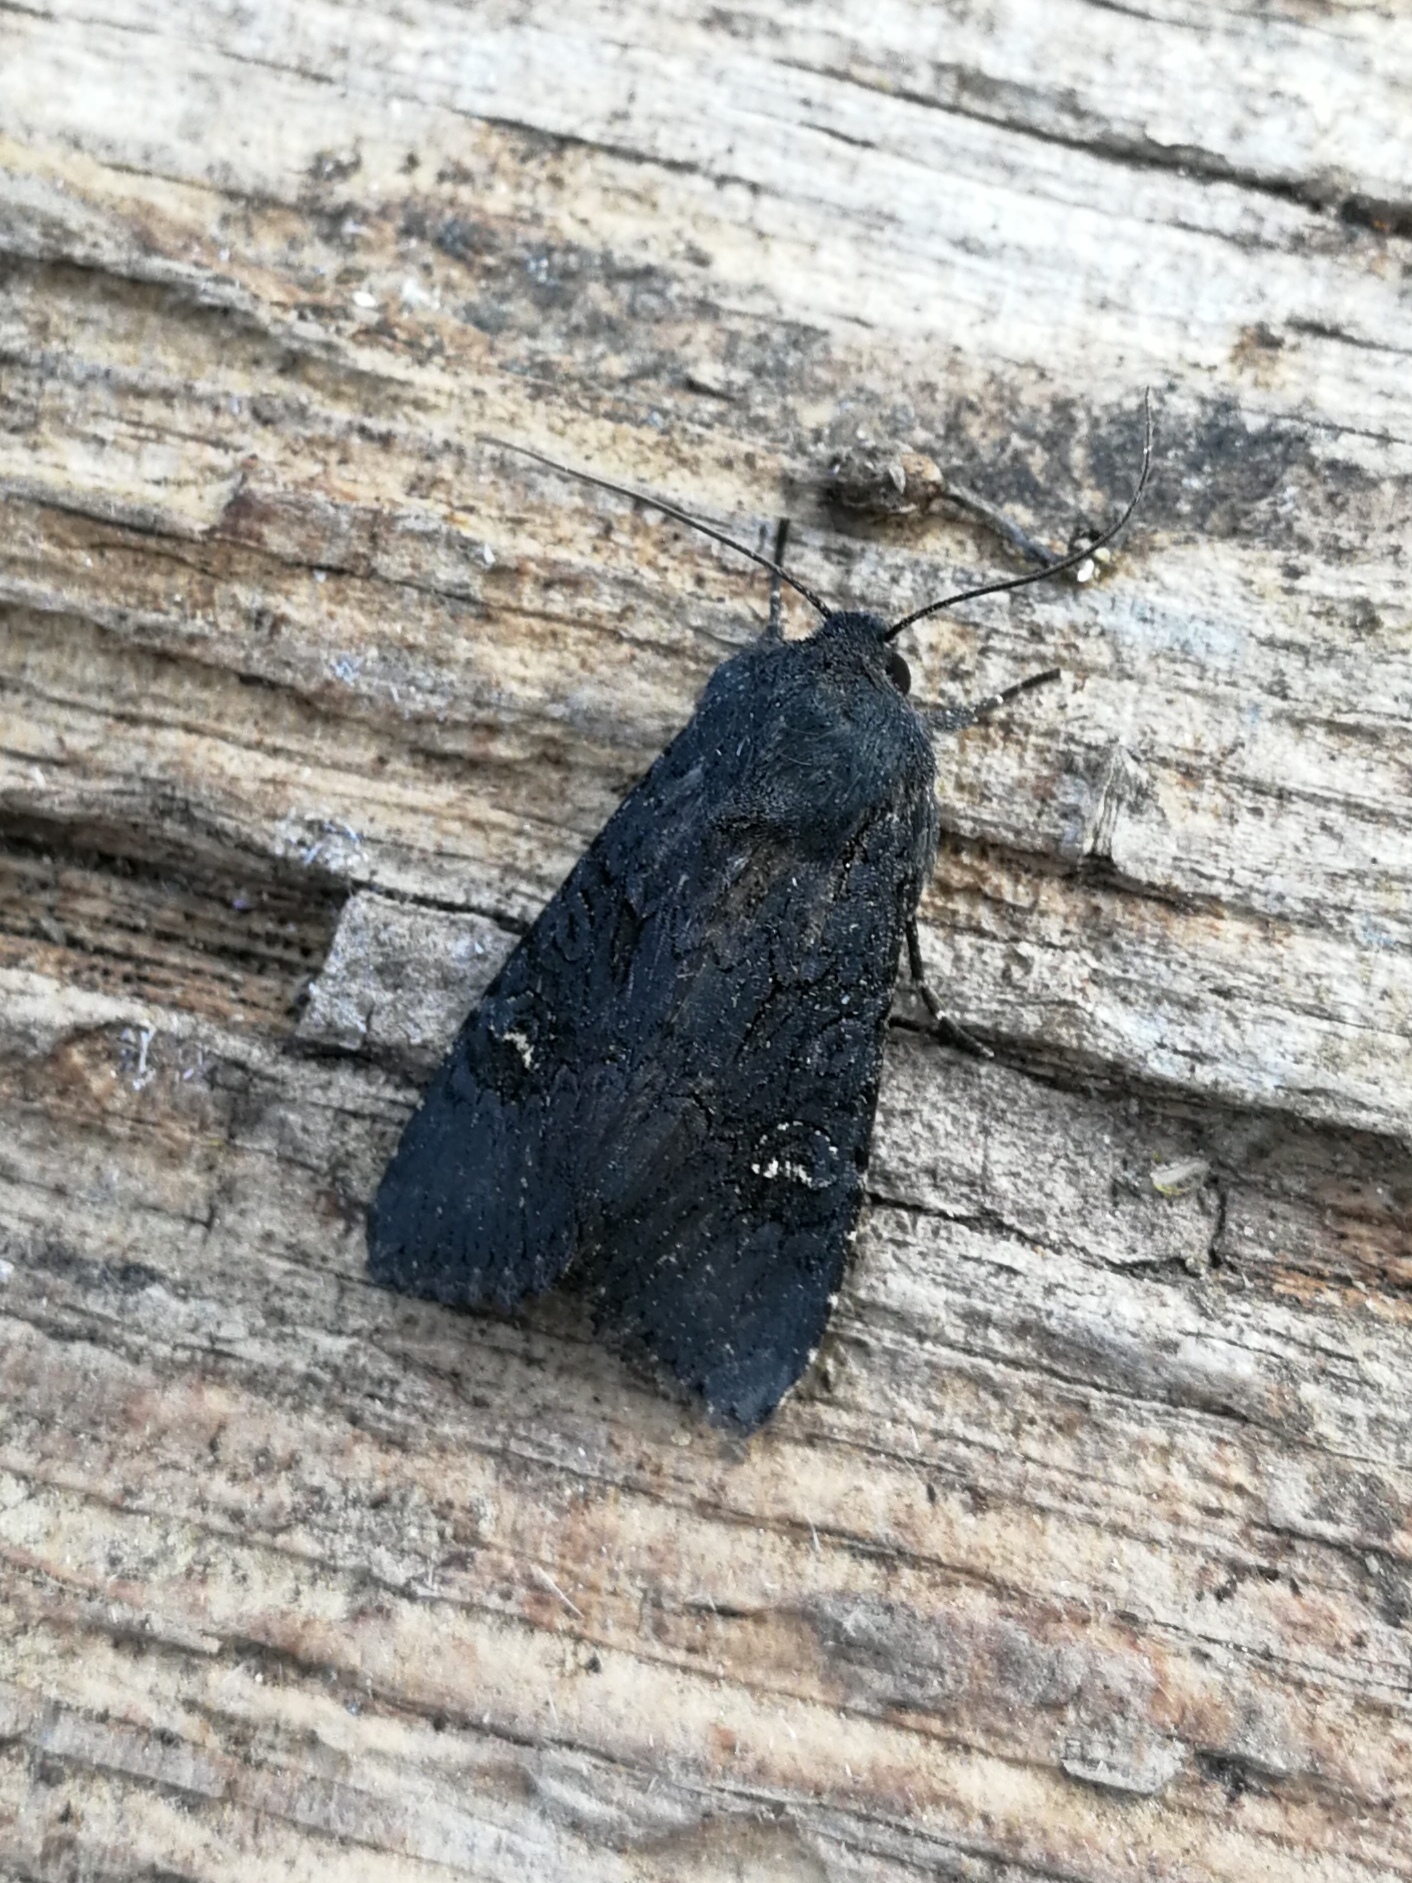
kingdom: Animalia
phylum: Arthropoda
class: Insecta
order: Lepidoptera
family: Noctuidae
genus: Aporophyla
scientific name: Aporophyla nigra
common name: Black rustic
